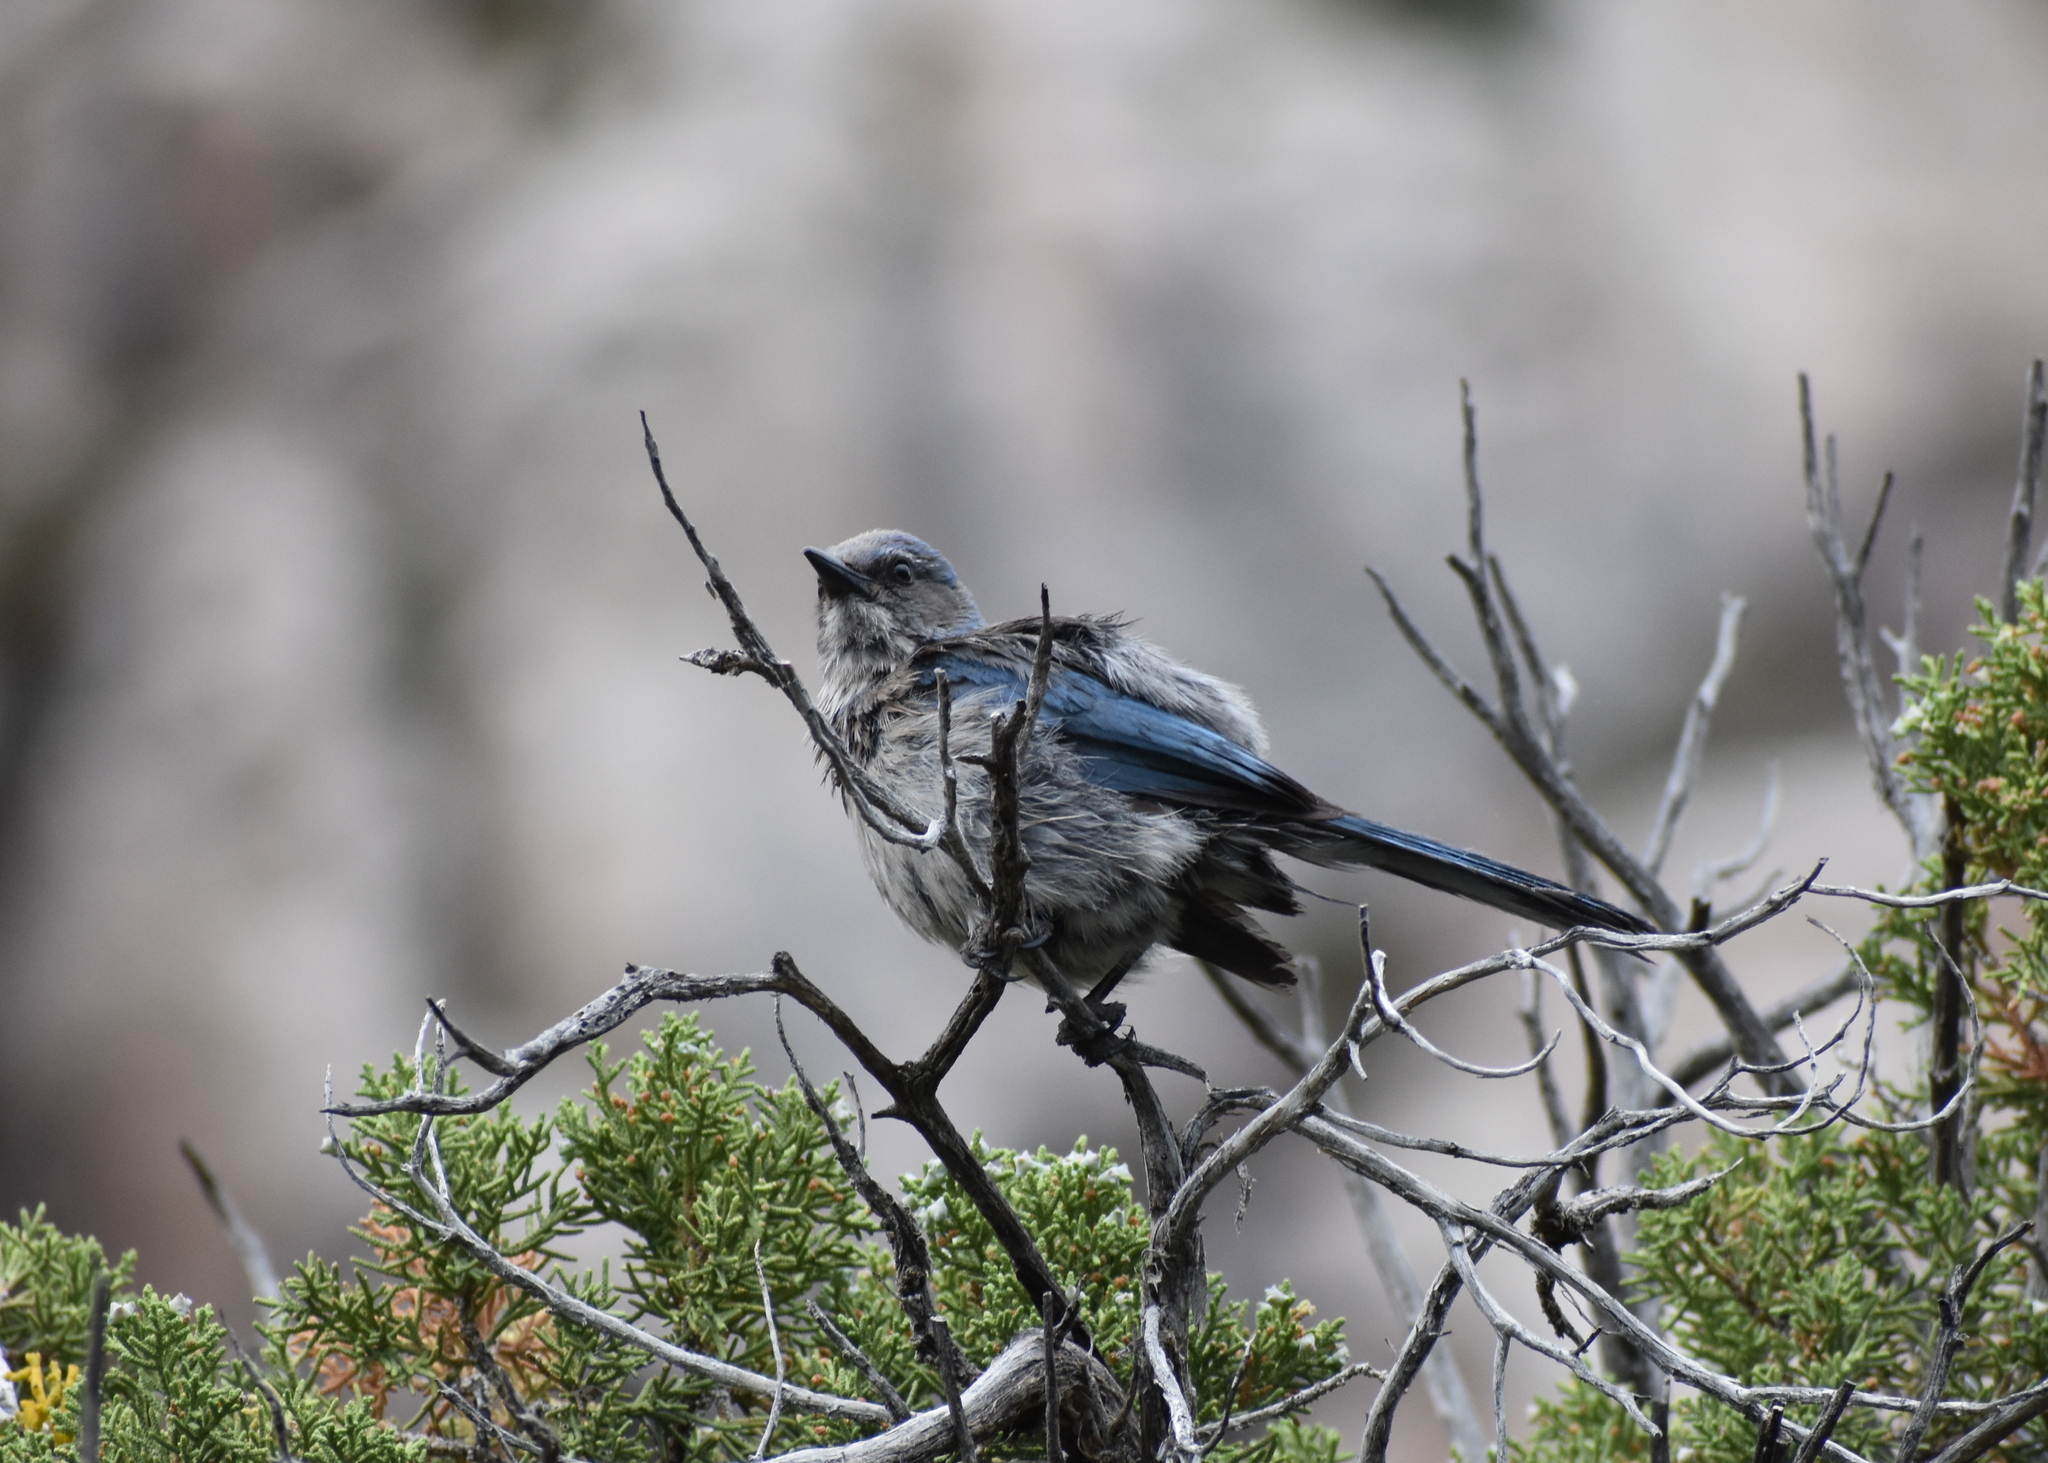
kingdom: Animalia
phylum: Chordata
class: Aves
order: Passeriformes
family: Corvidae
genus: Aphelocoma
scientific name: Aphelocoma woodhouseii
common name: Woodhouse's scrub-jay
